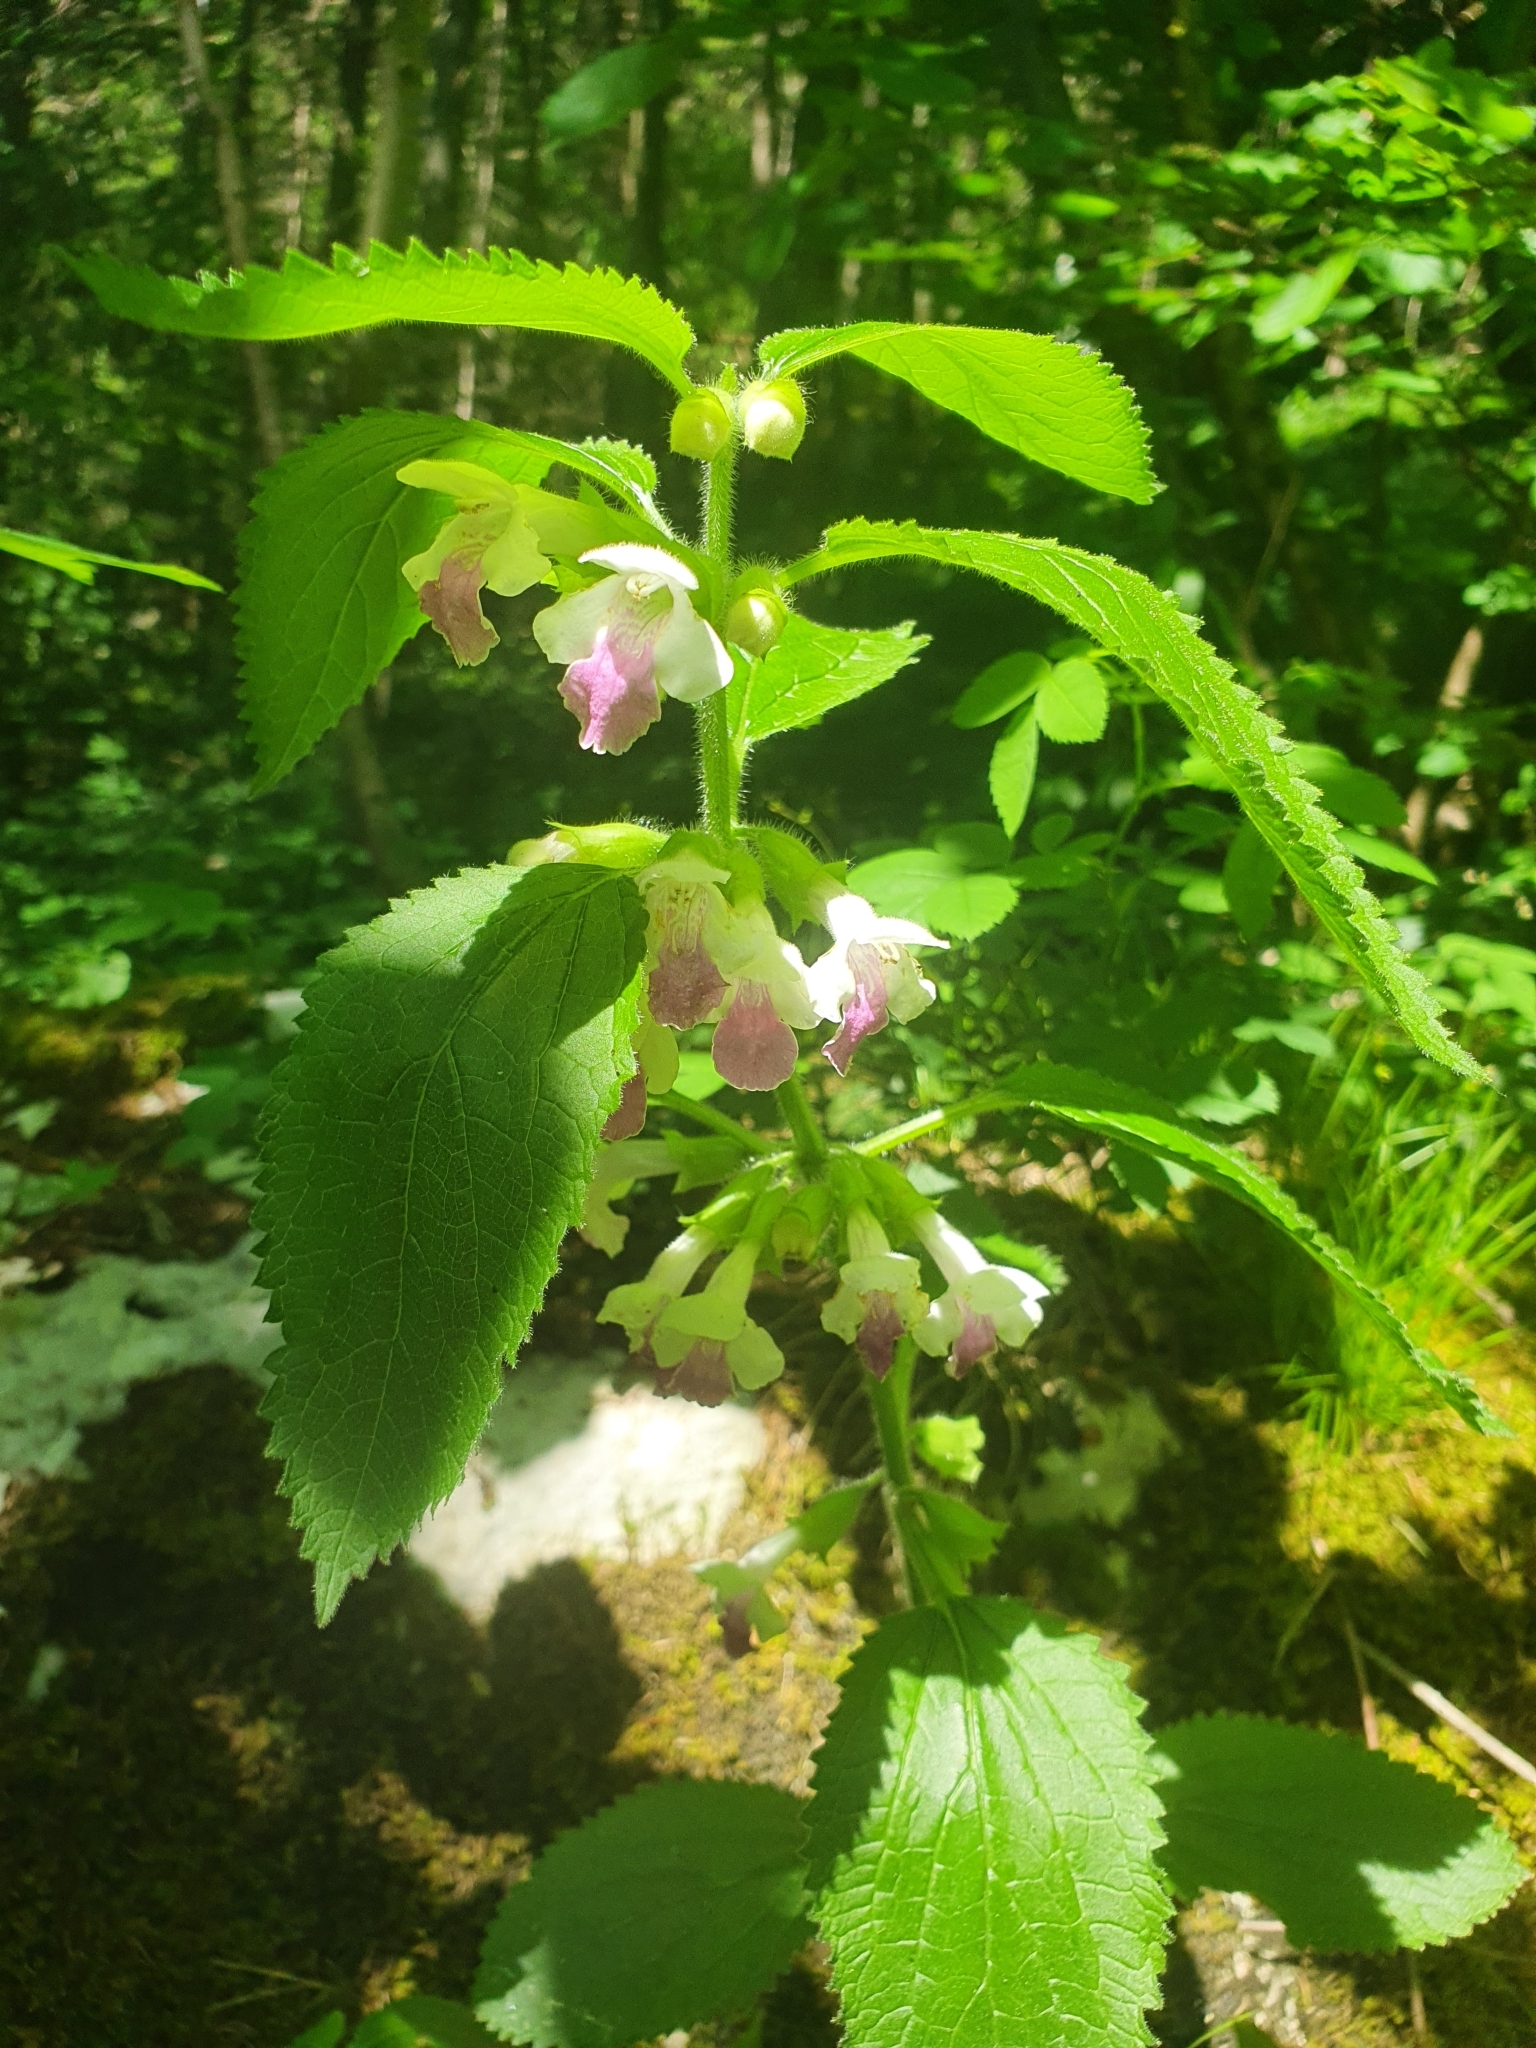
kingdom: Plantae
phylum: Tracheophyta
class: Magnoliopsida
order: Lamiales
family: Lamiaceae
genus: Melittis
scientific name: Melittis melissophyllum
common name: Bastard balm
